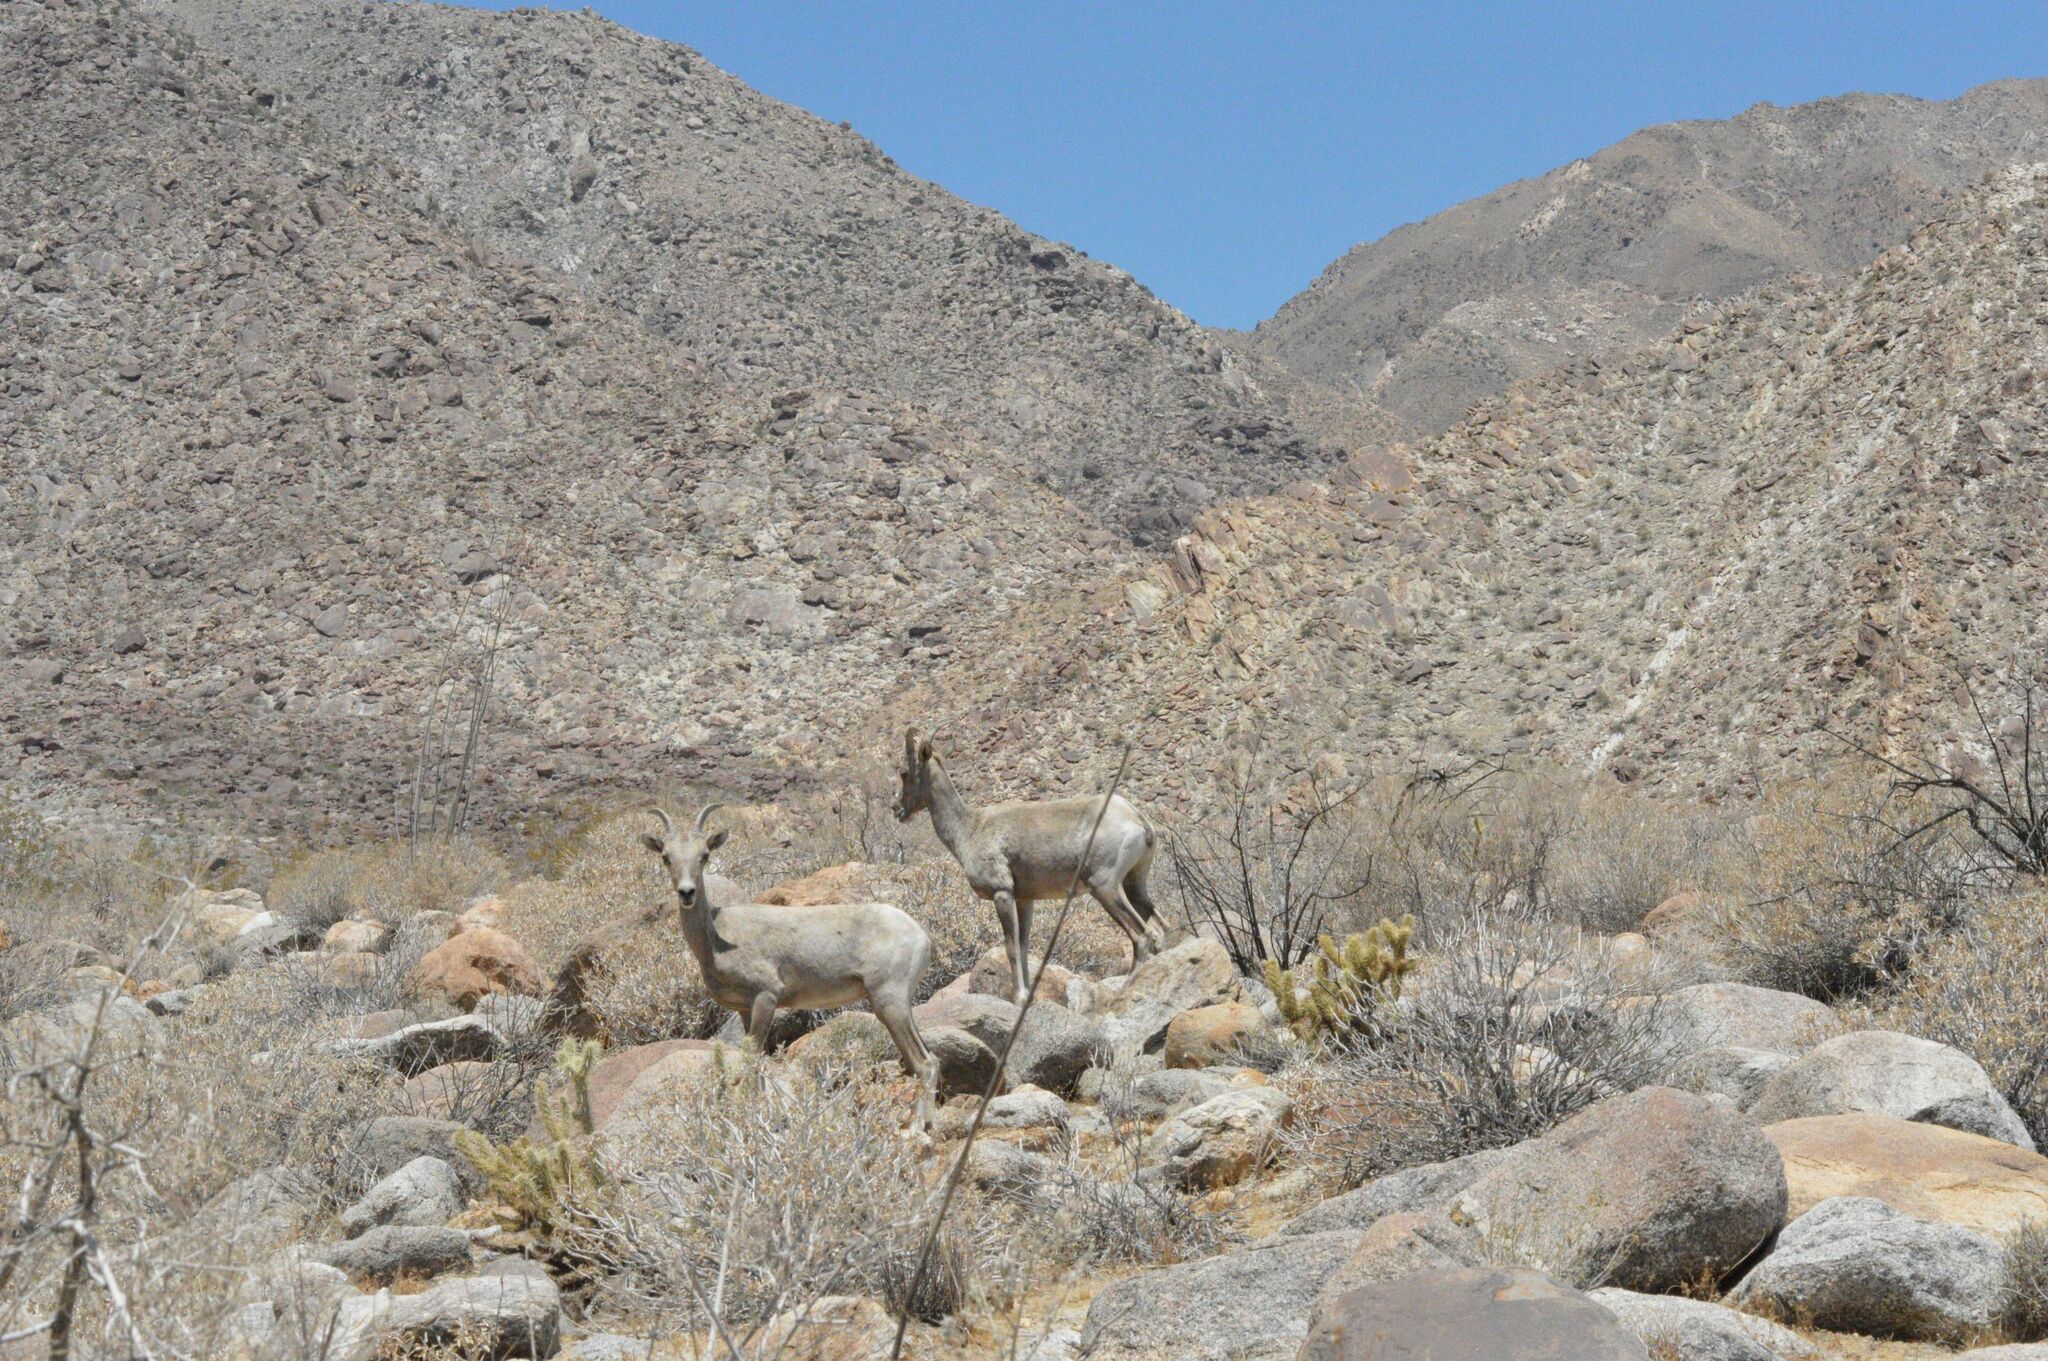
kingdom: Animalia
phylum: Chordata
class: Mammalia
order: Artiodactyla
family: Bovidae
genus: Ovis
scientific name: Ovis canadensis
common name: Bighorn sheep
